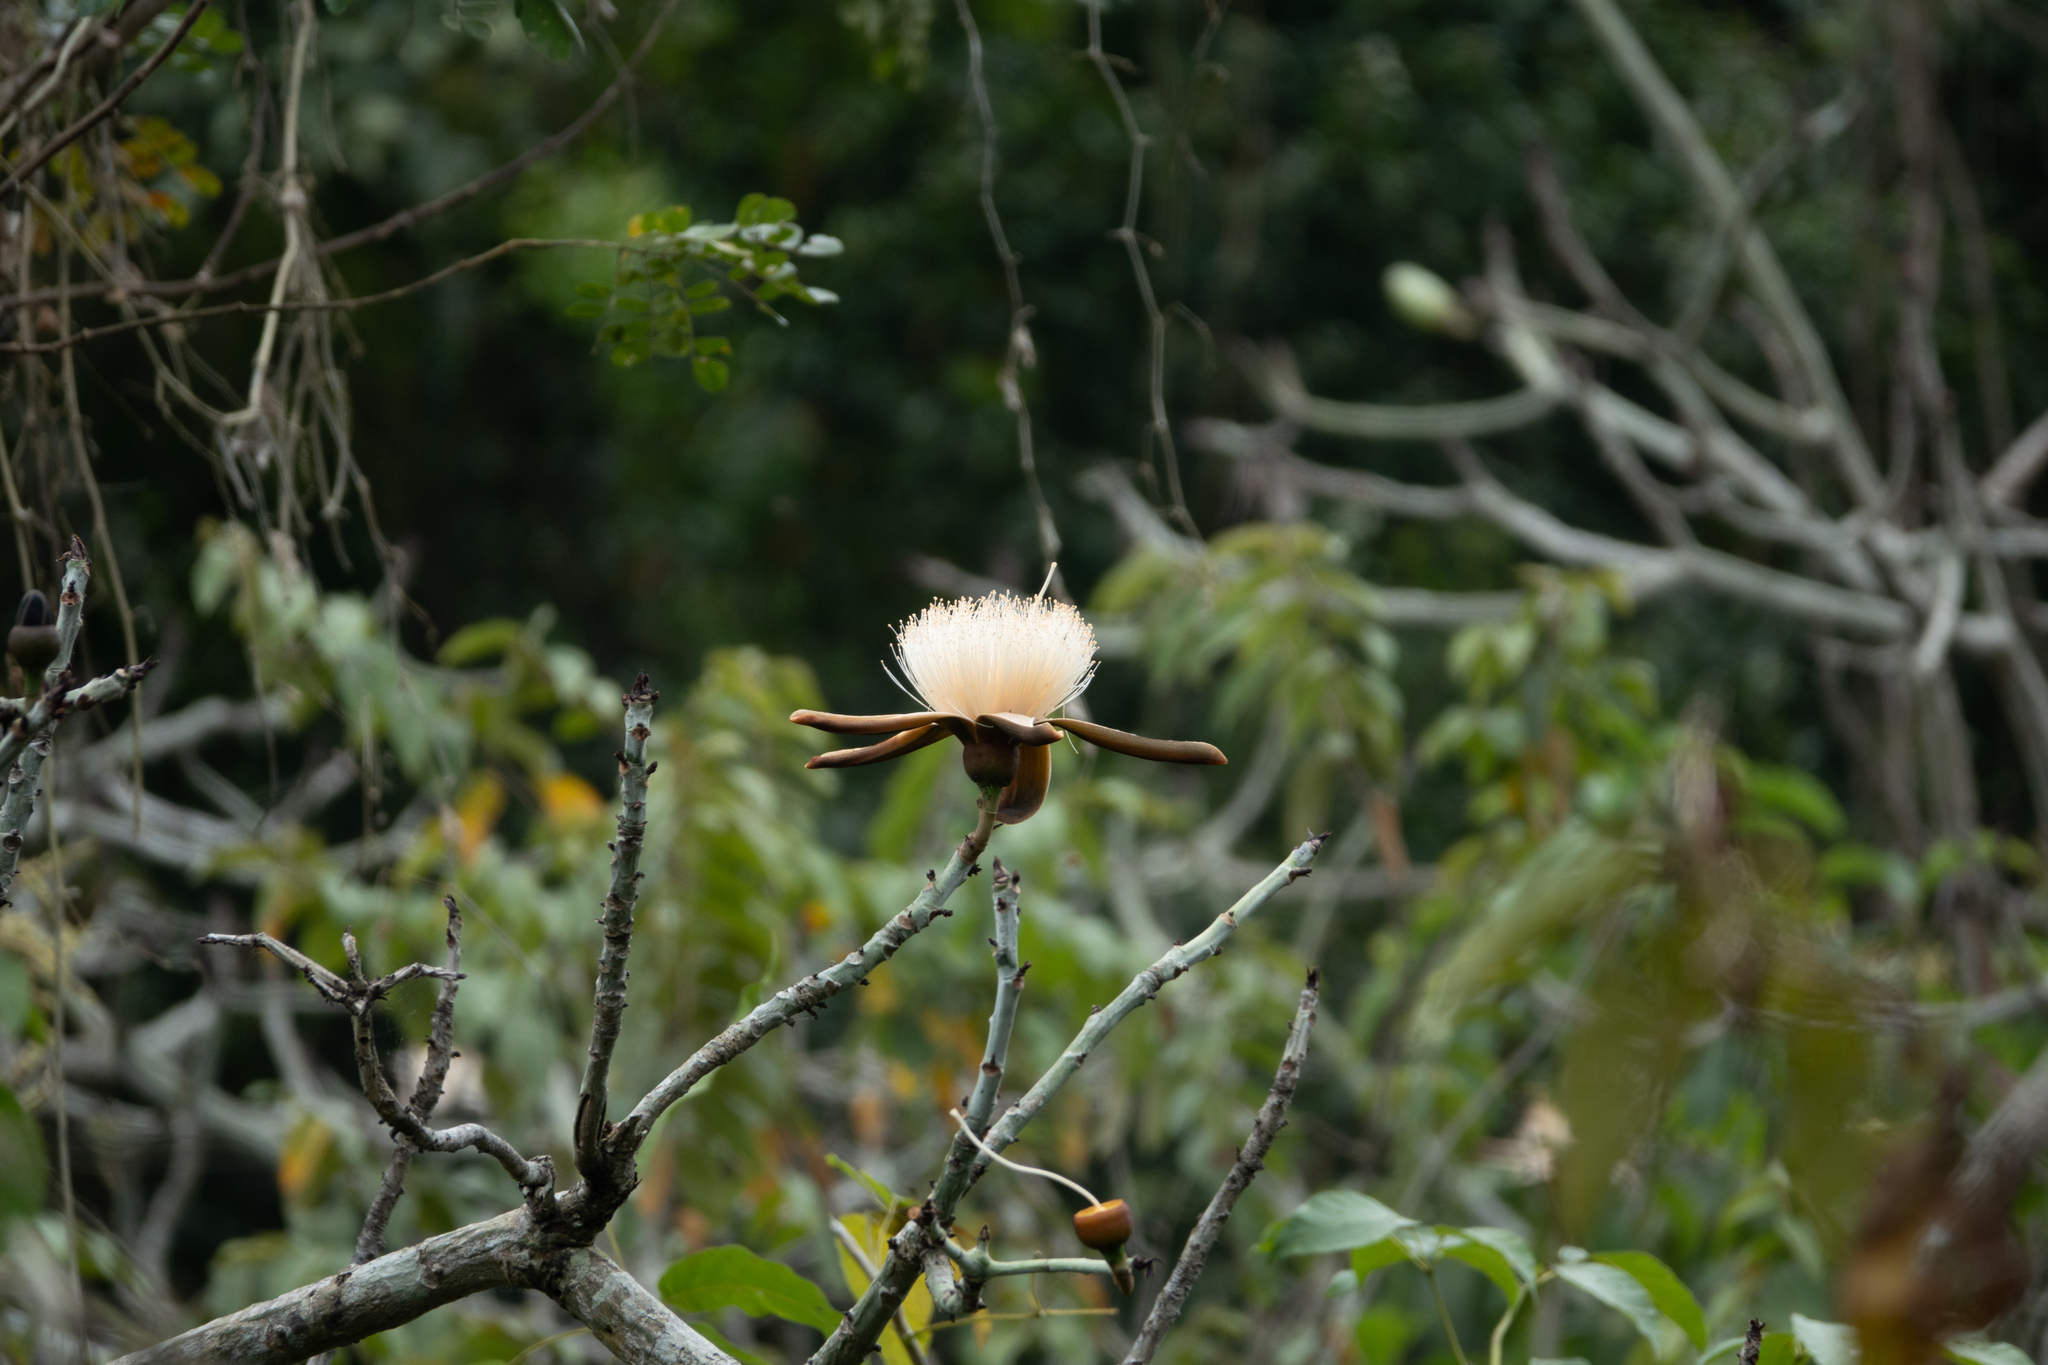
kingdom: Plantae
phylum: Tracheophyta
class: Magnoliopsida
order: Malvales
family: Malvaceae
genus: Pseudobombax
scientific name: Pseudobombax millei
